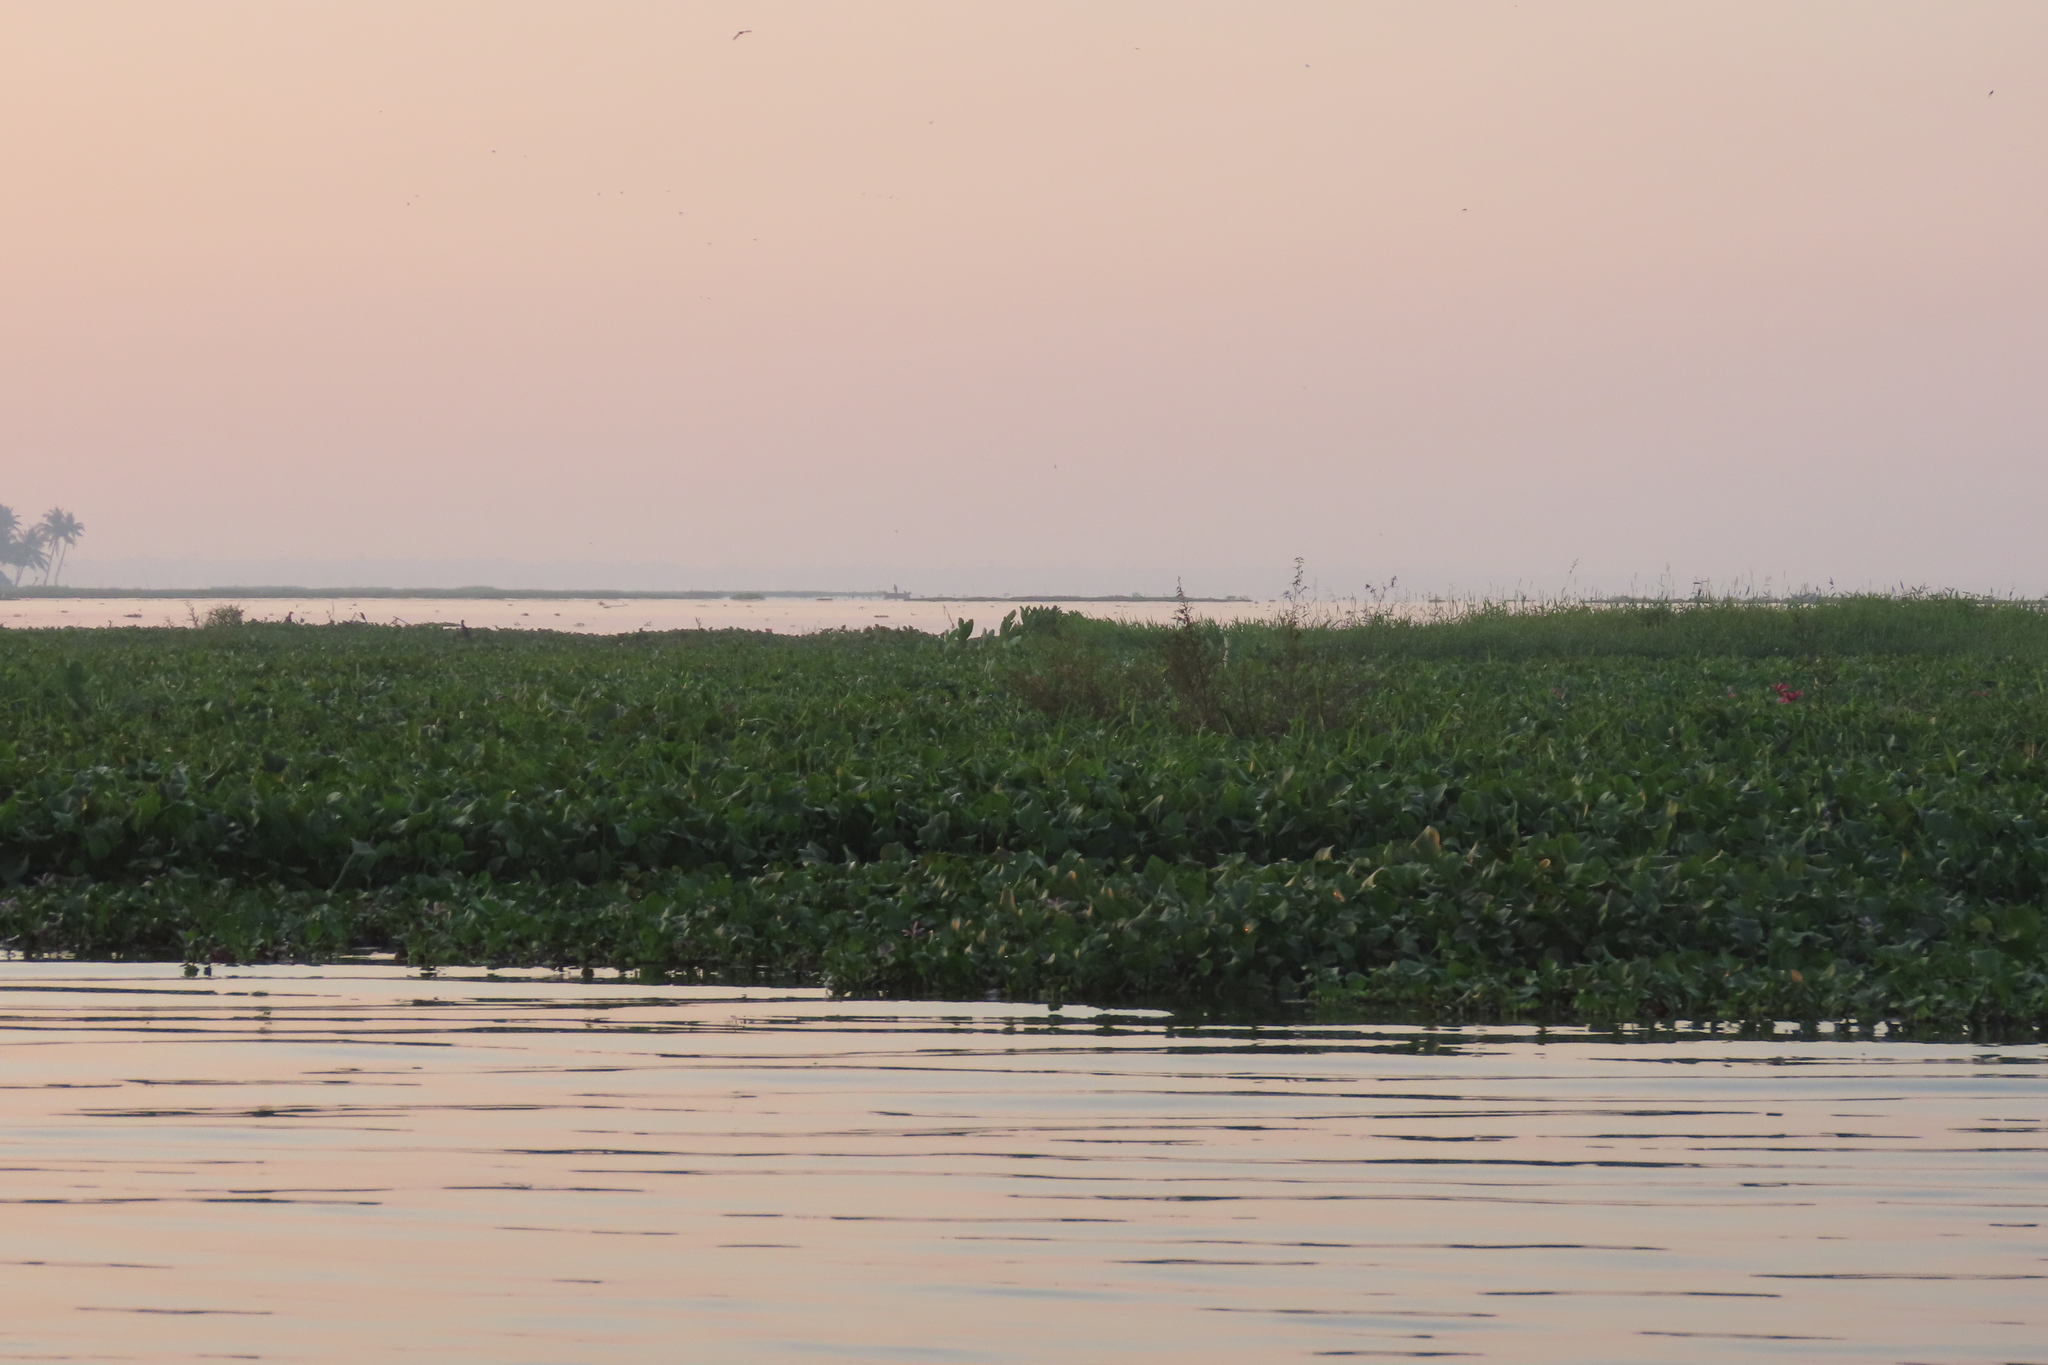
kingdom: Plantae
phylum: Tracheophyta
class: Liliopsida
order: Commelinales
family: Pontederiaceae
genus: Pontederia
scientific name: Pontederia crassipes
